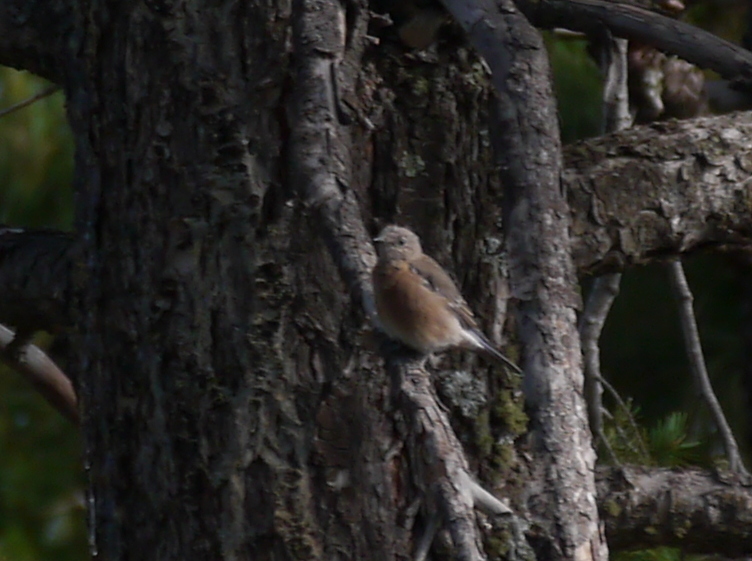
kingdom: Animalia
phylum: Chordata
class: Aves
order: Passeriformes
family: Turdidae
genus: Sialia
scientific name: Sialia mexicana
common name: Western bluebird
